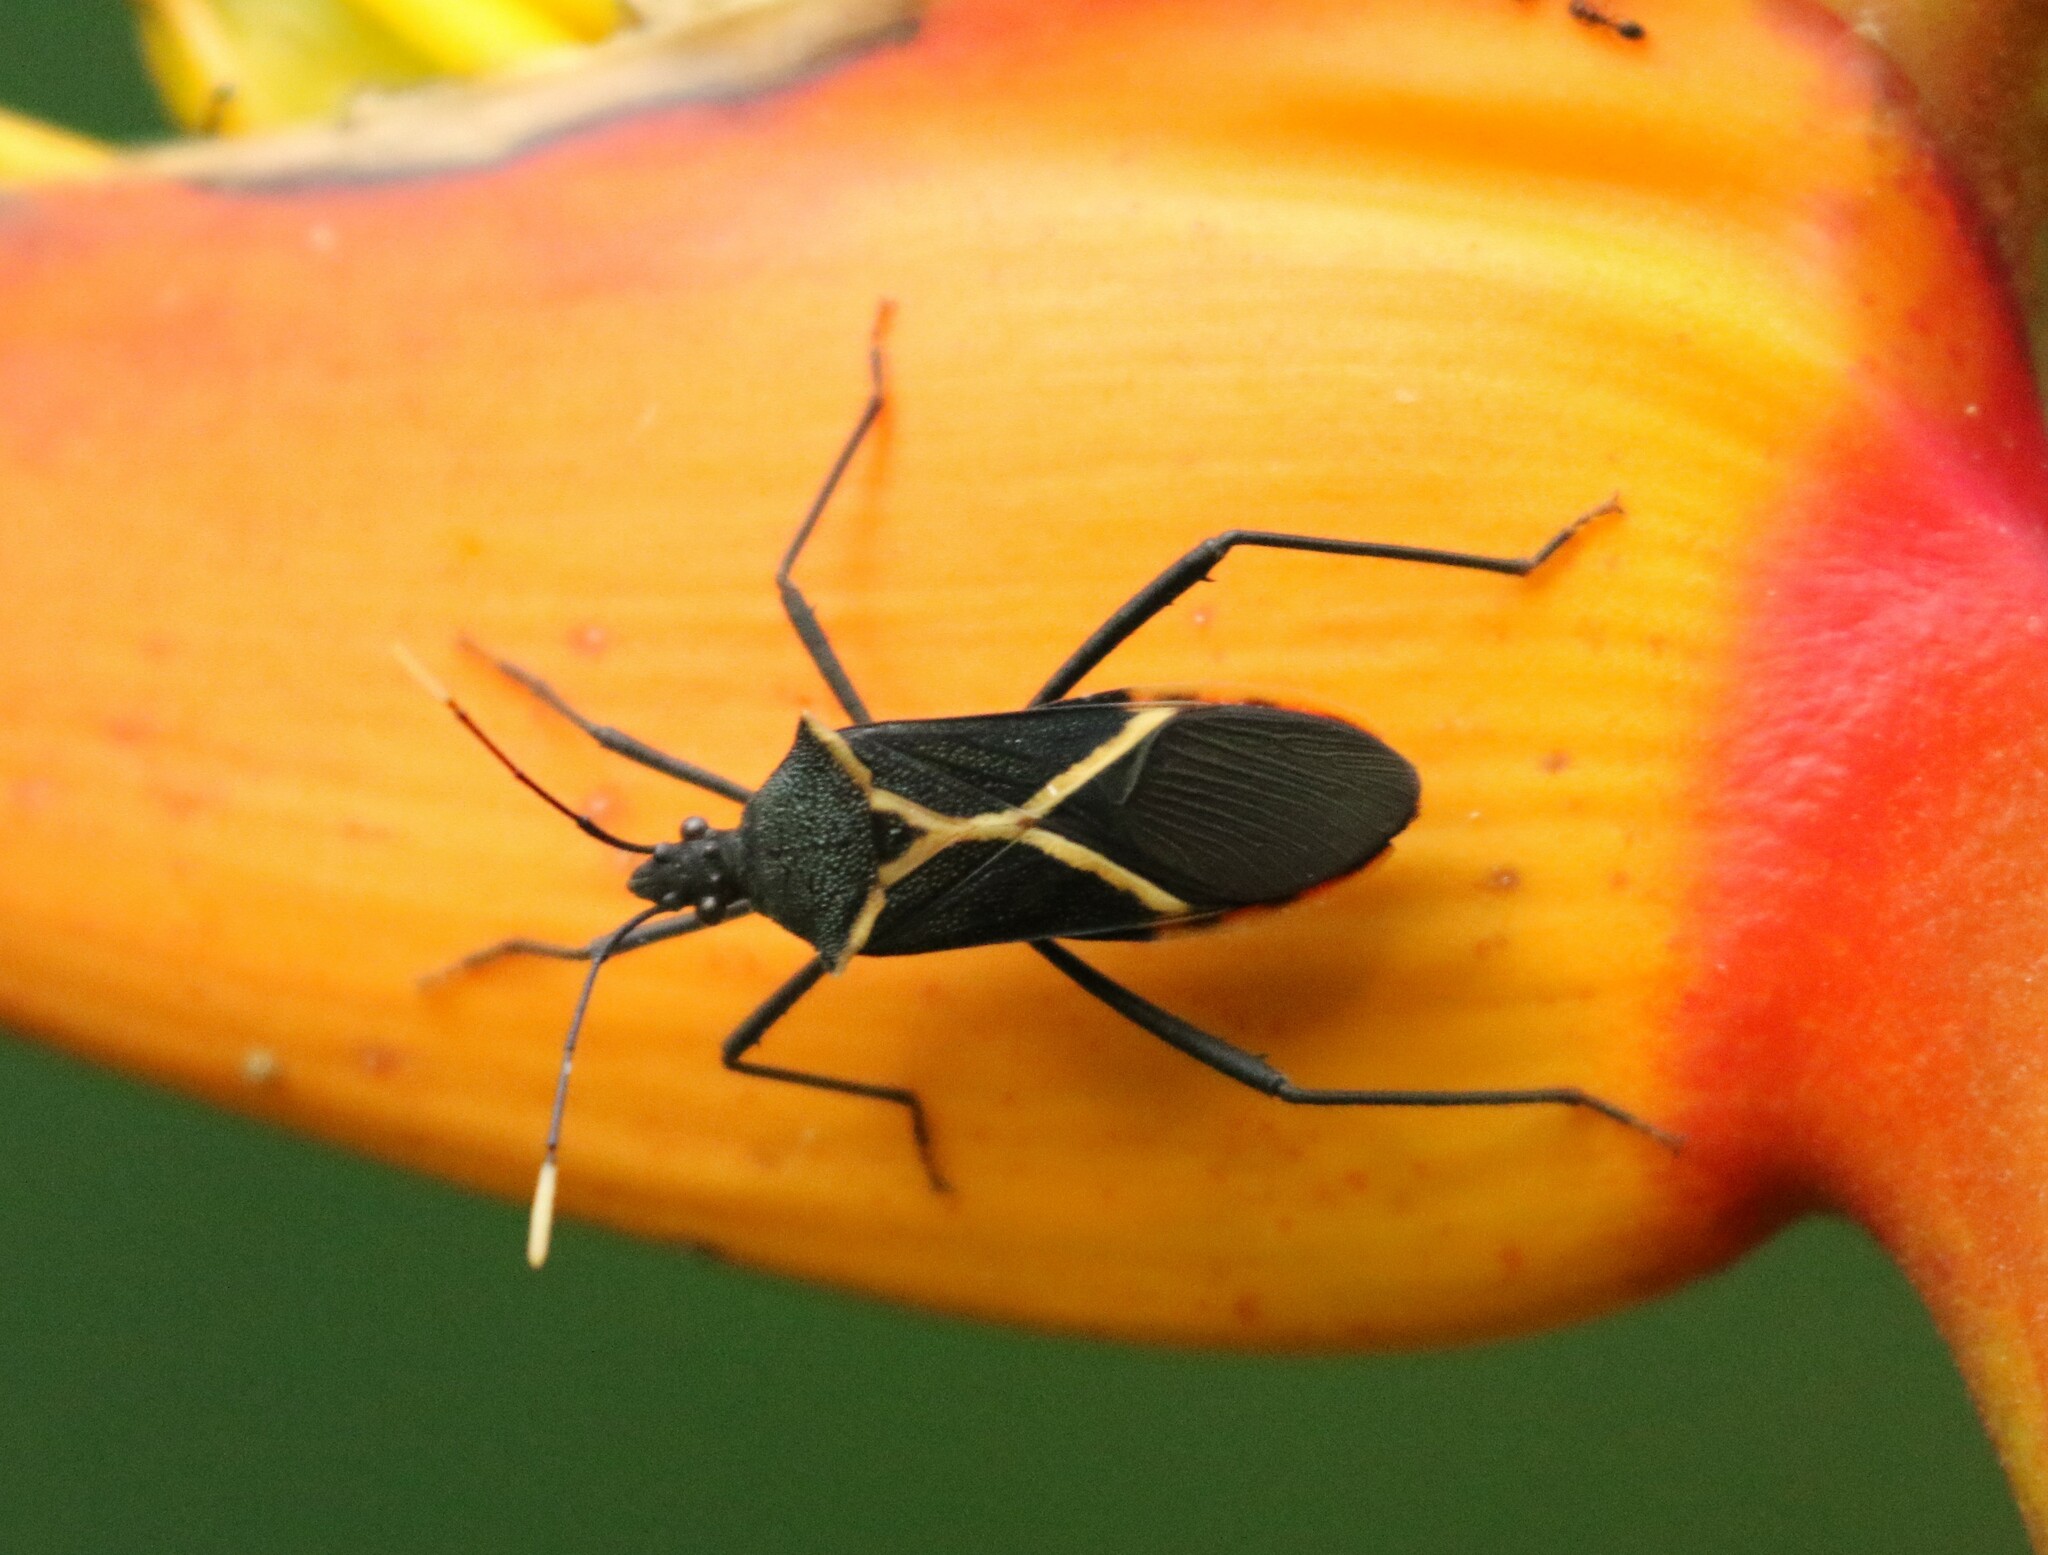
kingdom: Animalia
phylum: Arthropoda
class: Insecta
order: Hemiptera
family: Coreidae
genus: Leptoscelis
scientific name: Leptoscelis conspicuus
